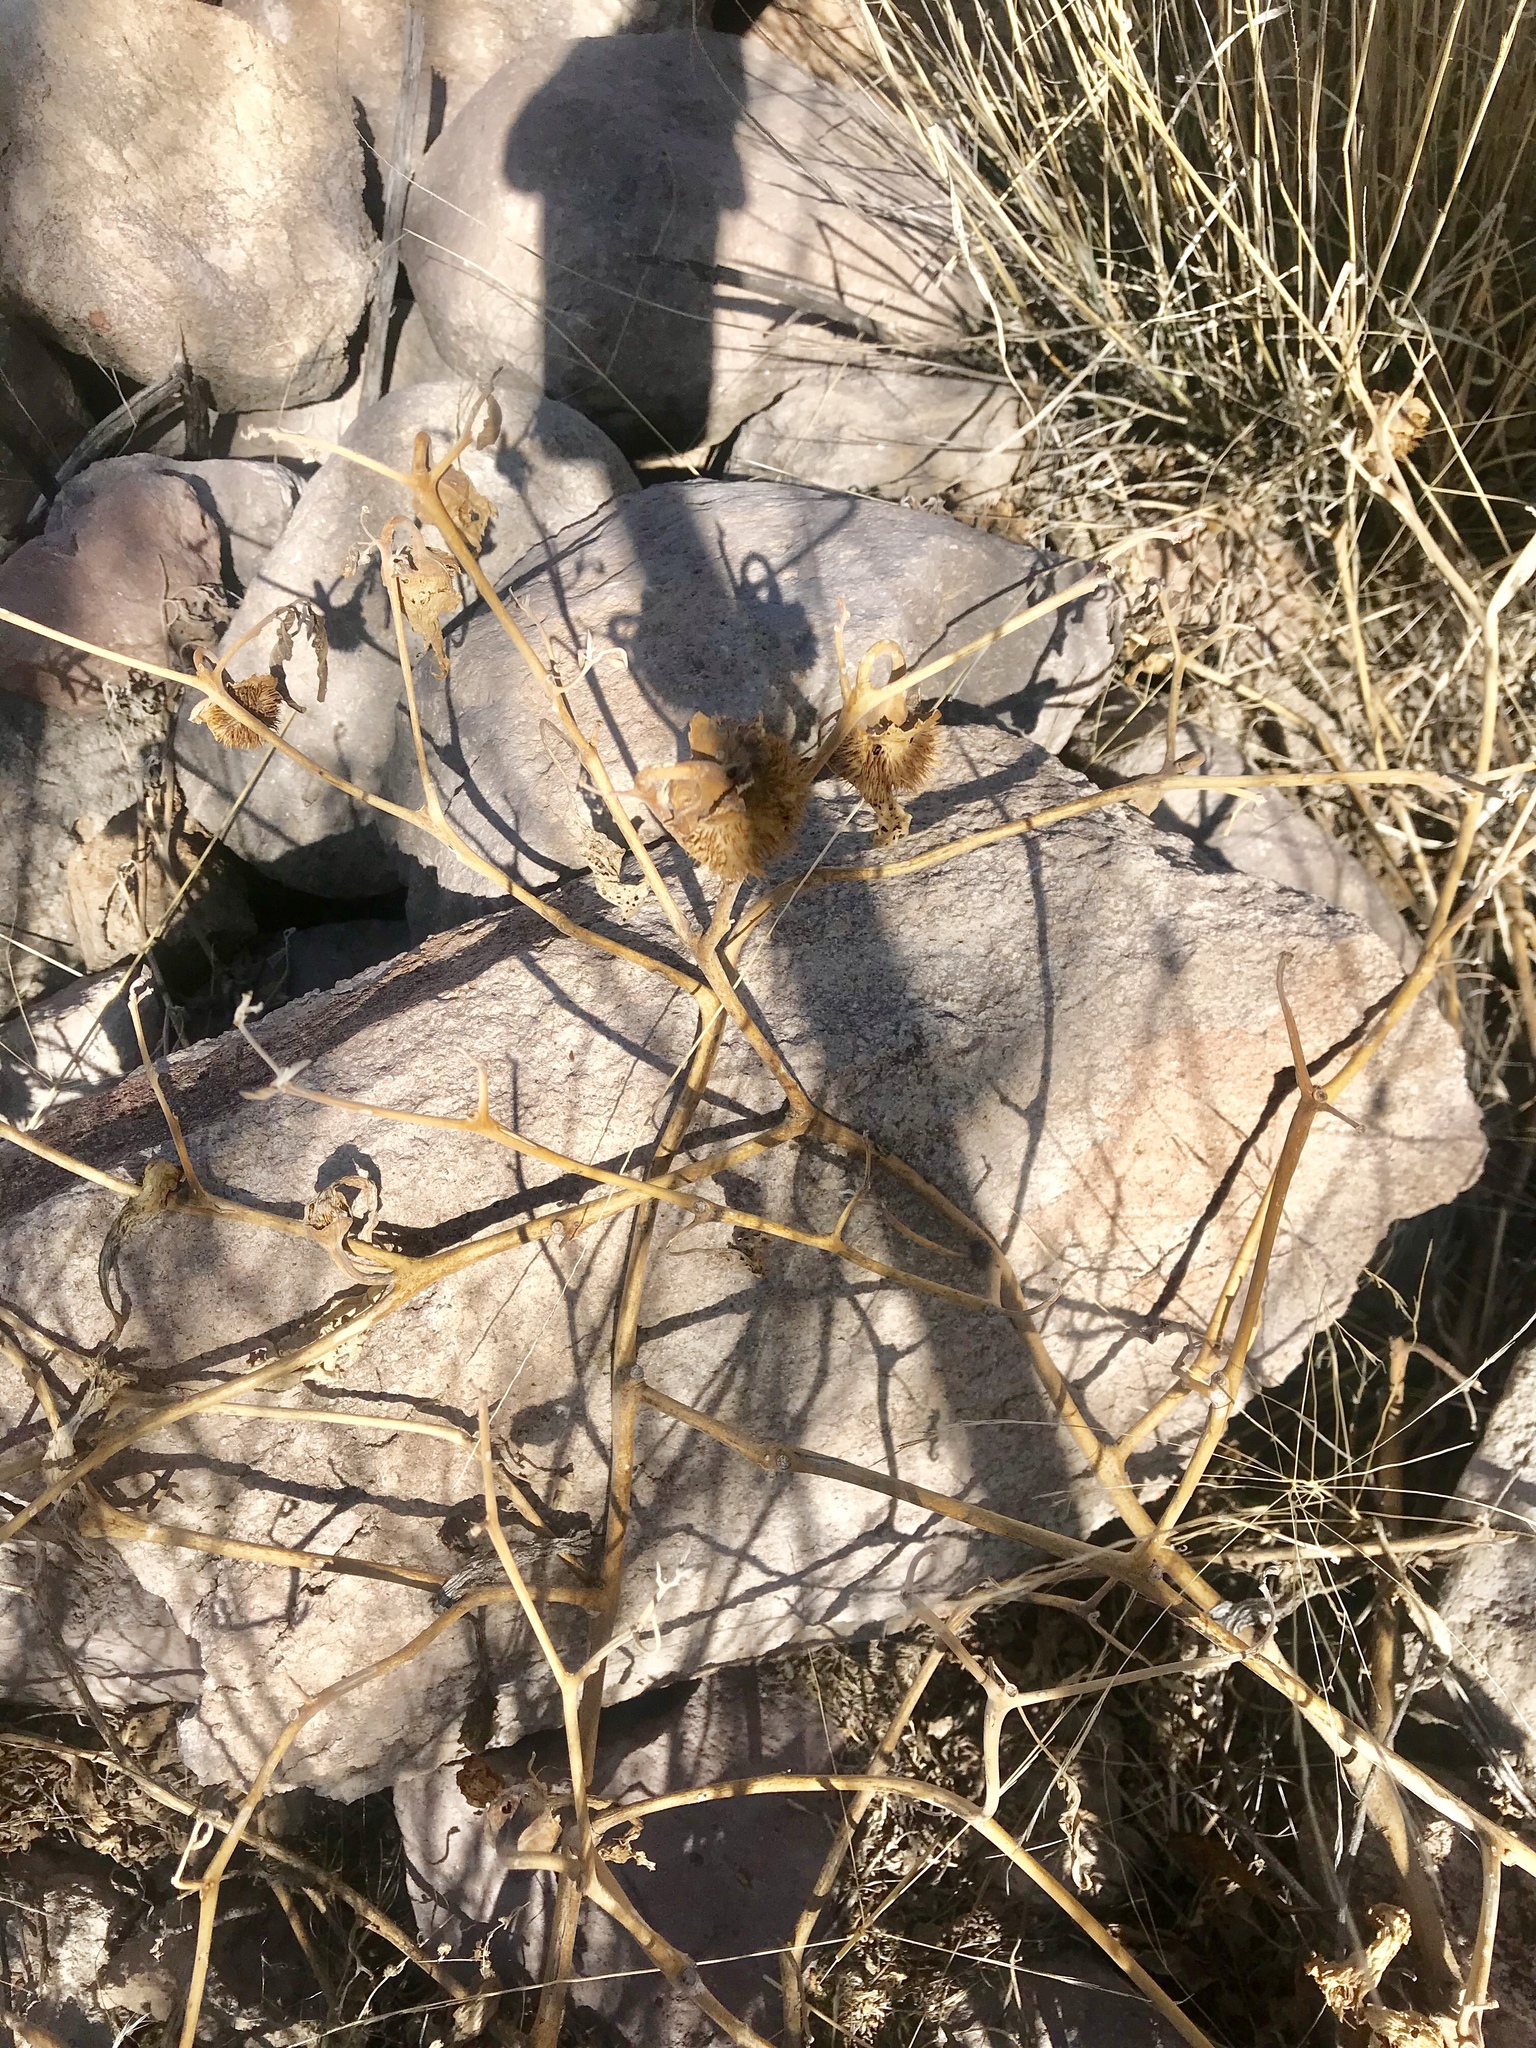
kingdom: Plantae
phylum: Tracheophyta
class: Magnoliopsida
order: Solanales
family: Solanaceae
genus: Datura
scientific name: Datura wrightii
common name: Sacred thorn-apple
